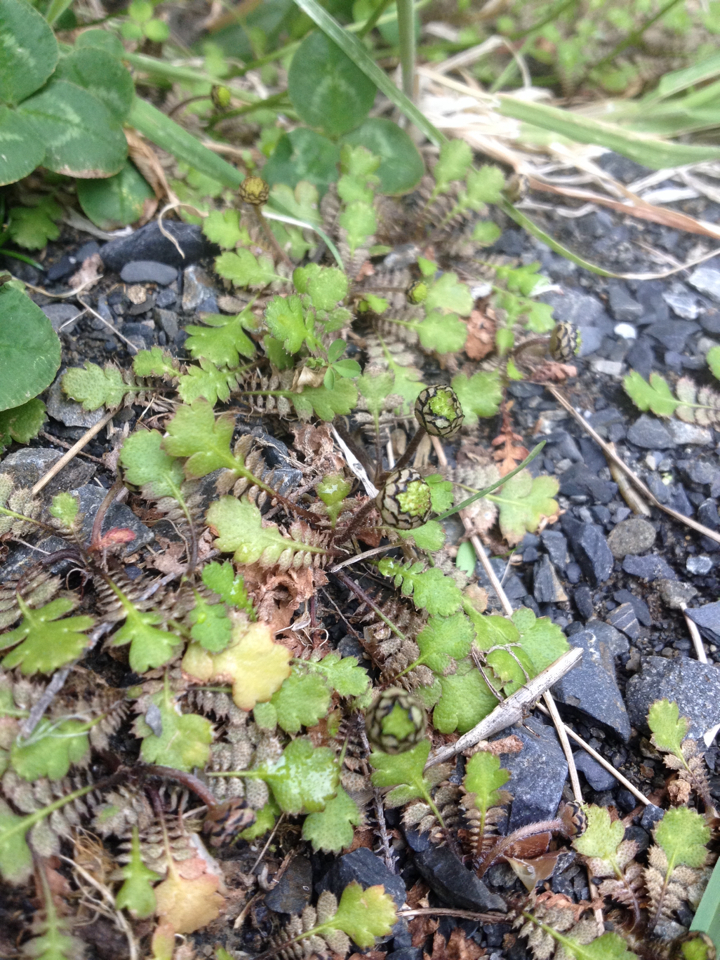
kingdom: Plantae
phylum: Tracheophyta
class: Magnoliopsida
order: Asterales
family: Asteraceae
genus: Leptinella
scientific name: Leptinella squalida
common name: New zealand brass-buttons
